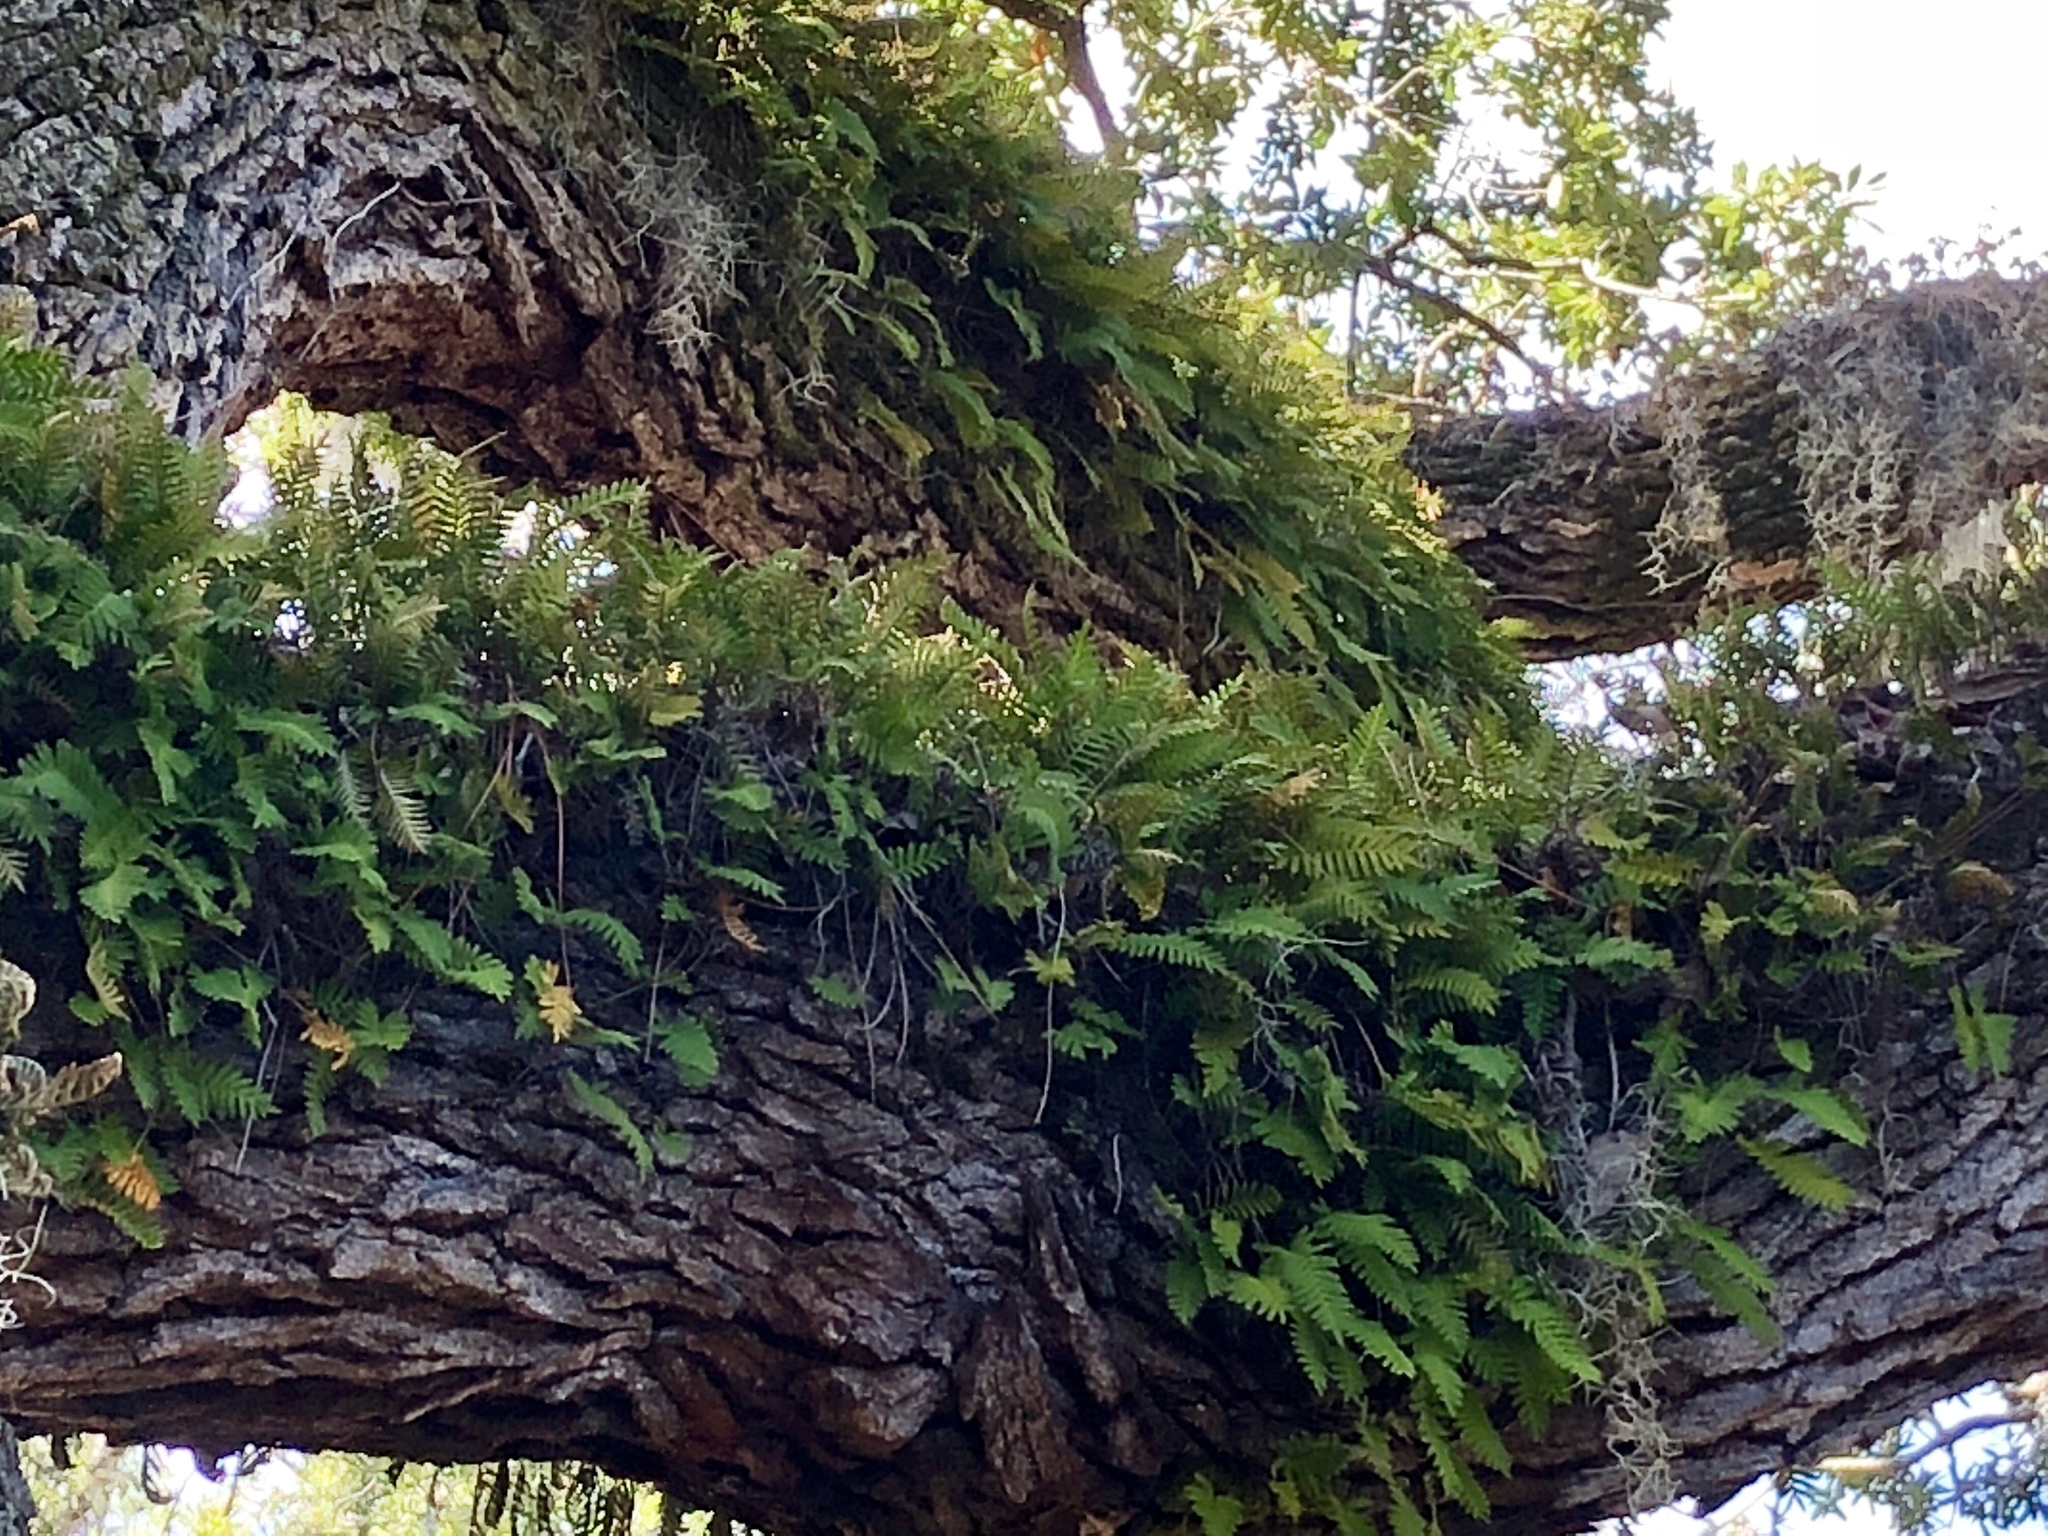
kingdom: Plantae
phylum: Tracheophyta
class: Polypodiopsida
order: Polypodiales
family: Polypodiaceae
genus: Pleopeltis
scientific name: Pleopeltis michauxiana
